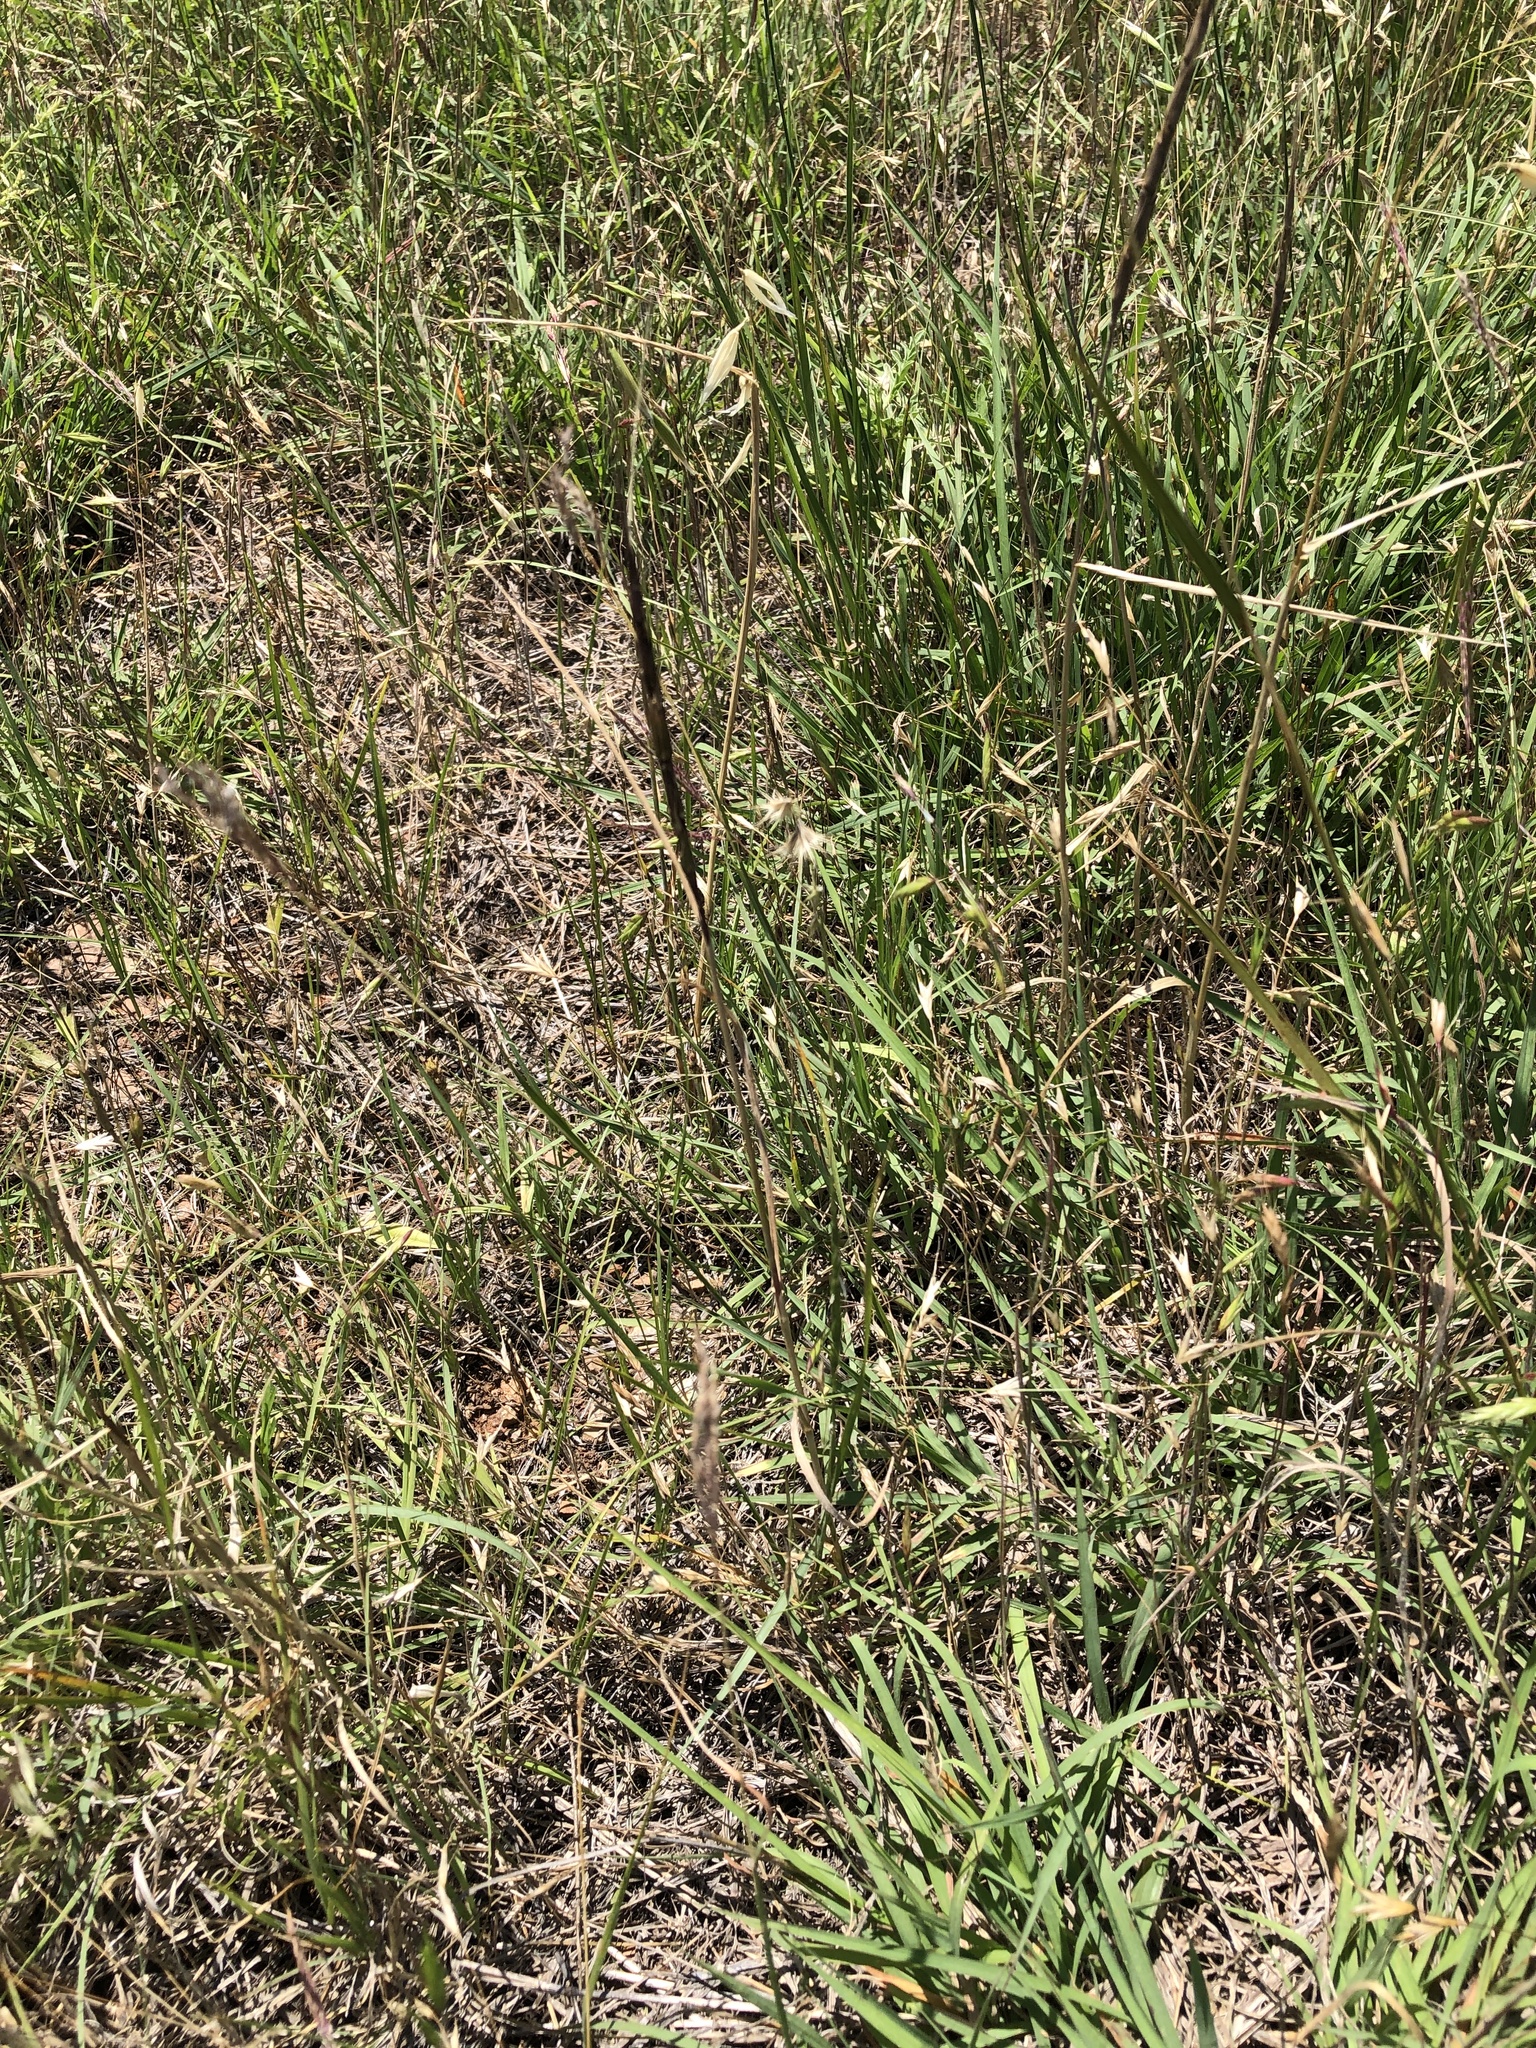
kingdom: Plantae
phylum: Tracheophyta
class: Liliopsida
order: Poales
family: Poaceae
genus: Aegilops
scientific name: Aegilops cylindrica
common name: Jointed goatgrass
